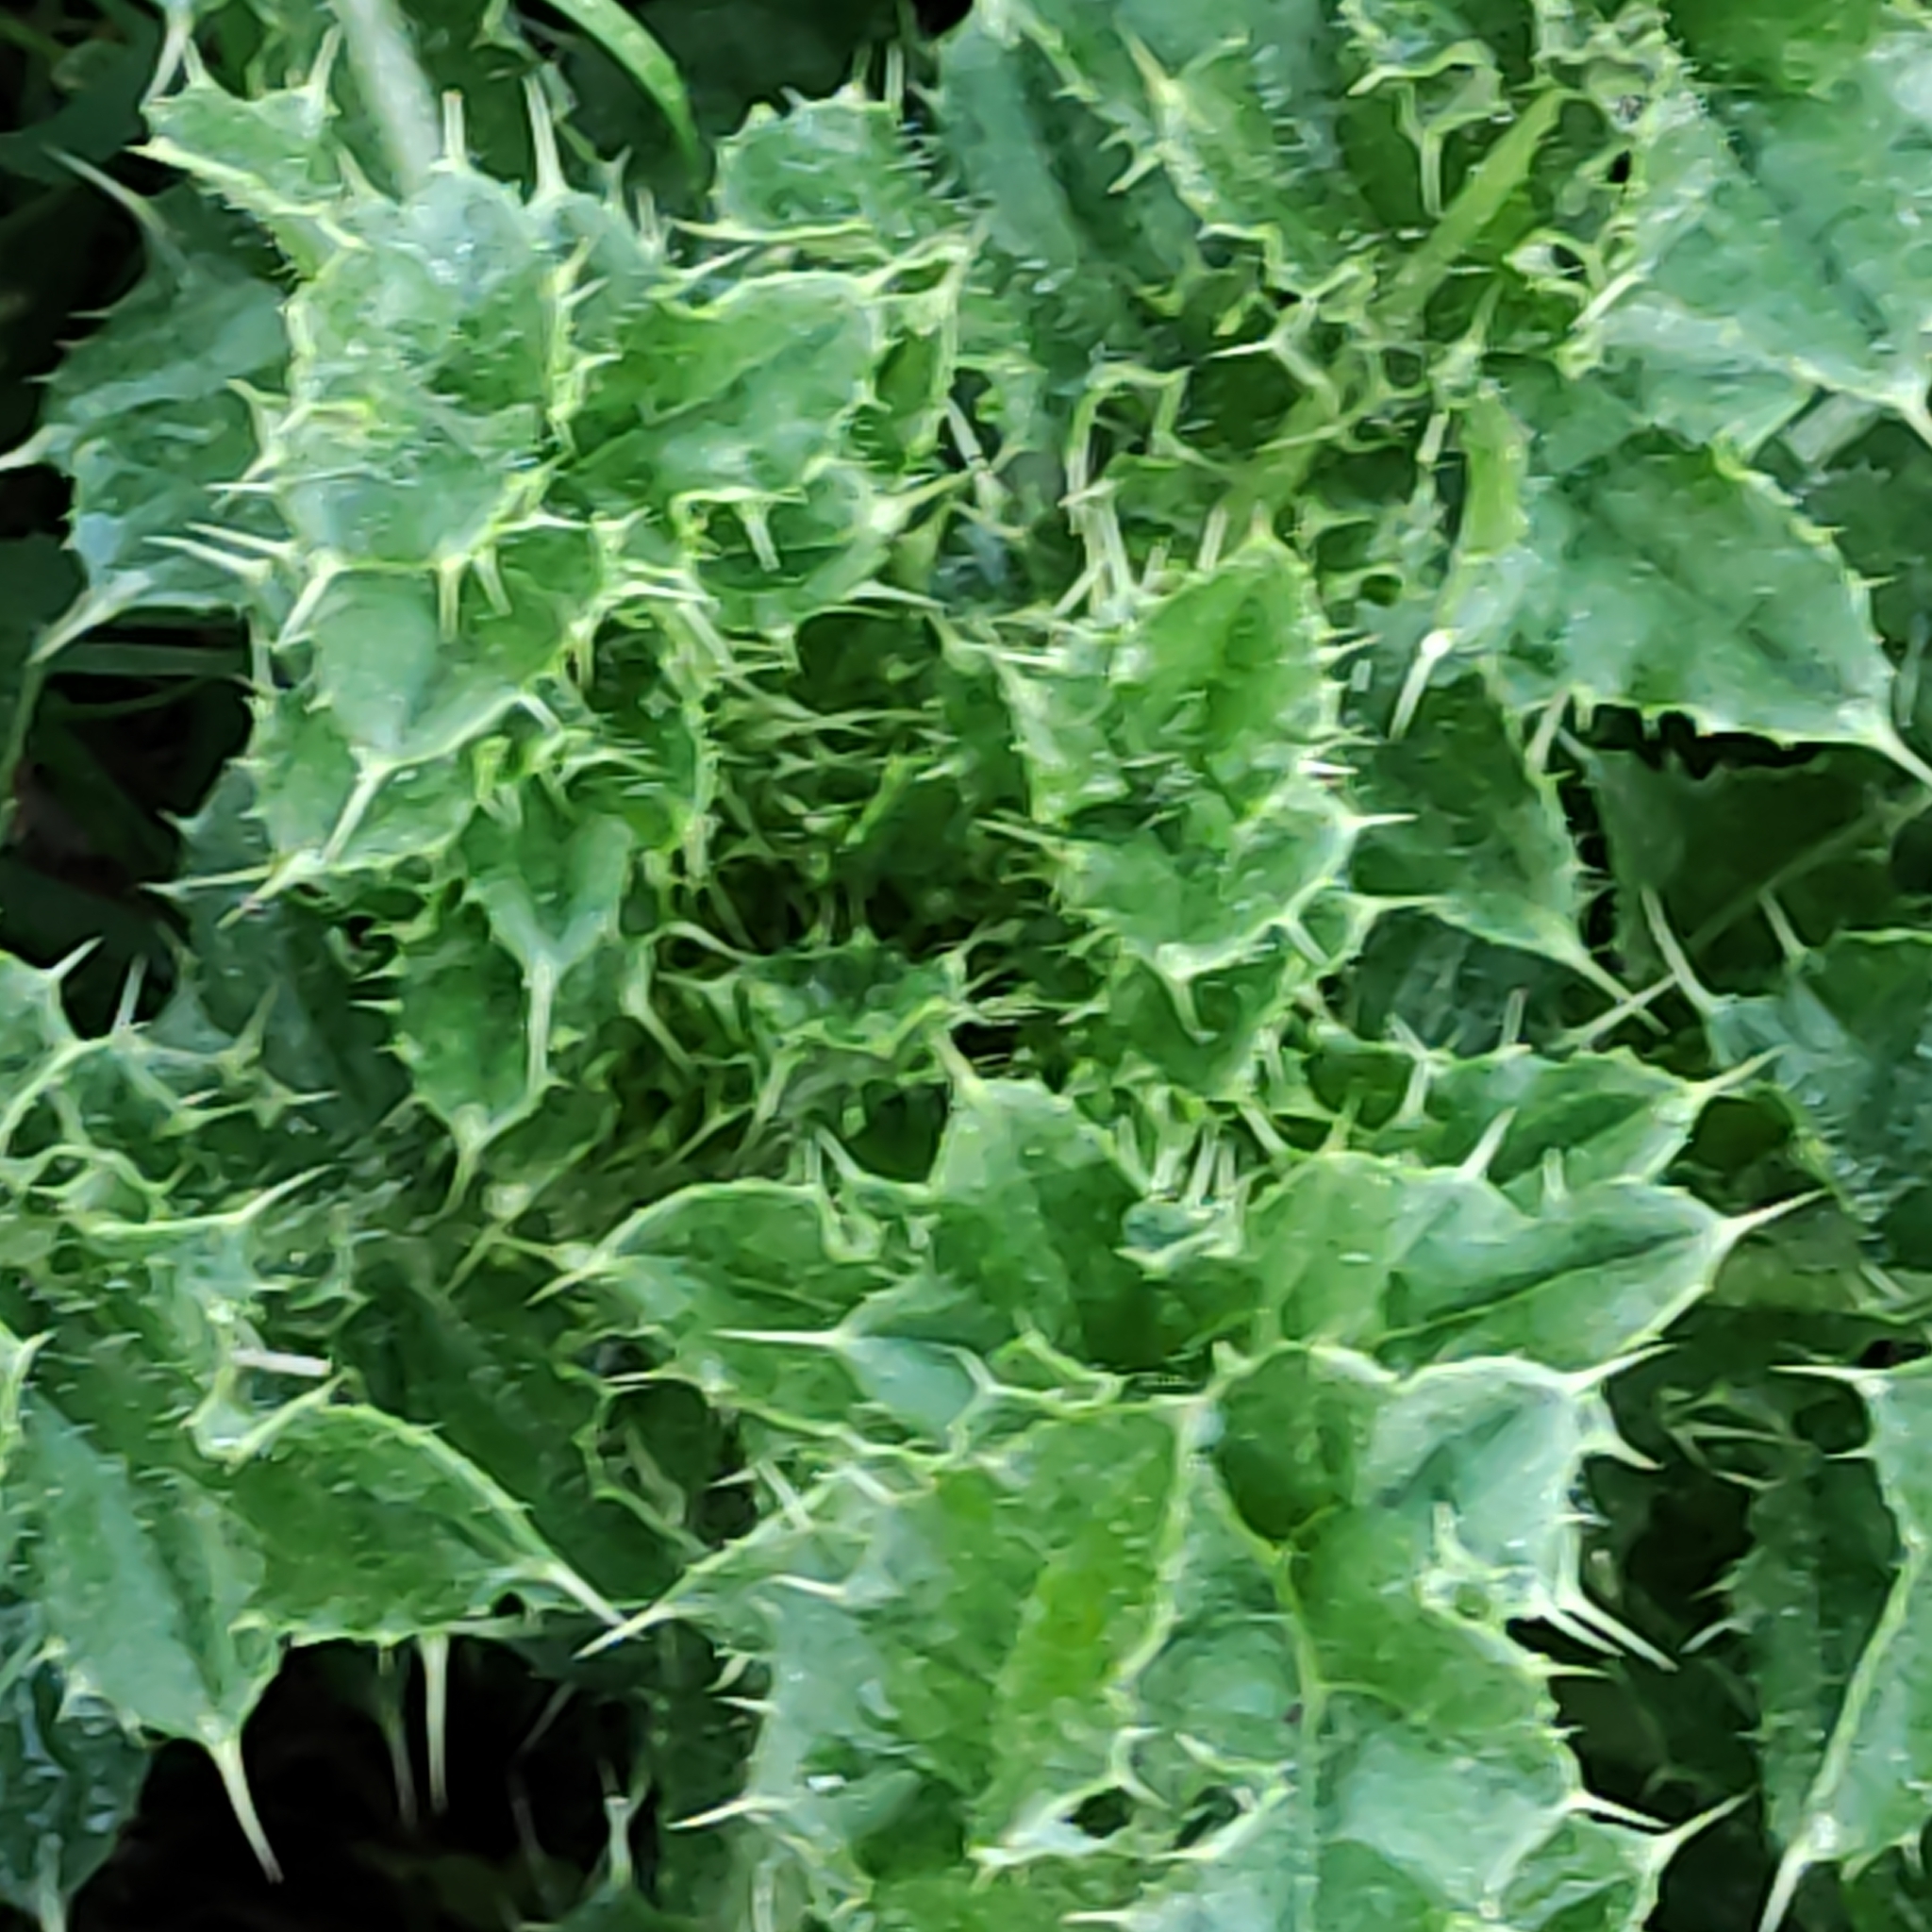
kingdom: Plantae
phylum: Tracheophyta
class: Magnoliopsida
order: Asterales
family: Asteraceae
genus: Cirsium
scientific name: Cirsium arvense
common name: Creeping thistle
